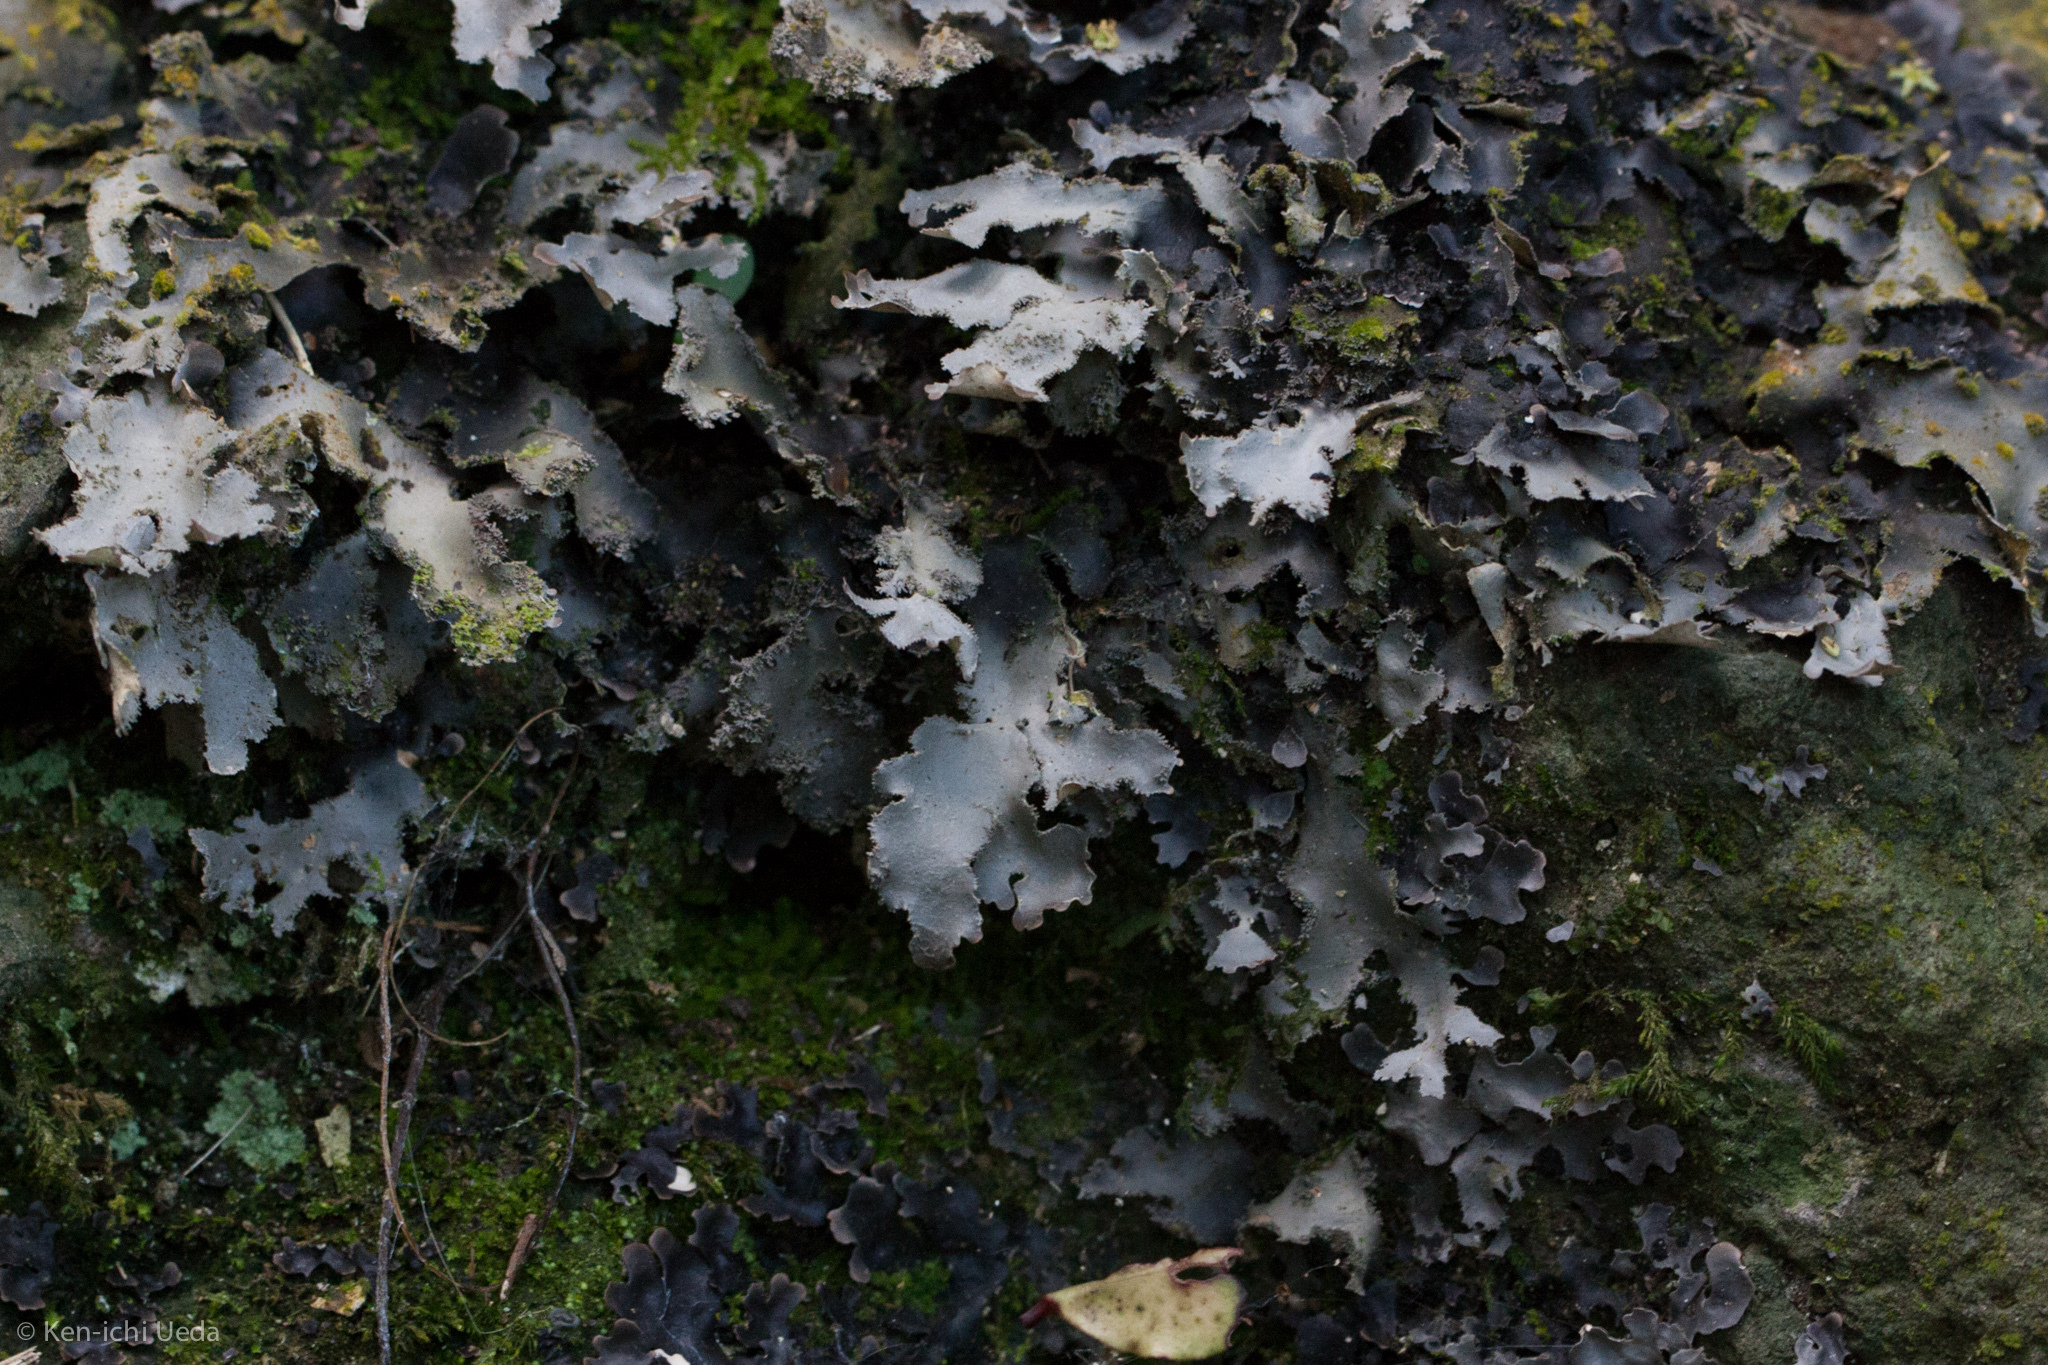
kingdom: Fungi
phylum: Ascomycota
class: Lecanoromycetes
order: Peltigerales
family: Lobariaceae
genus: Pseudocyphellaria
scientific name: Pseudocyphellaria dissimilis
